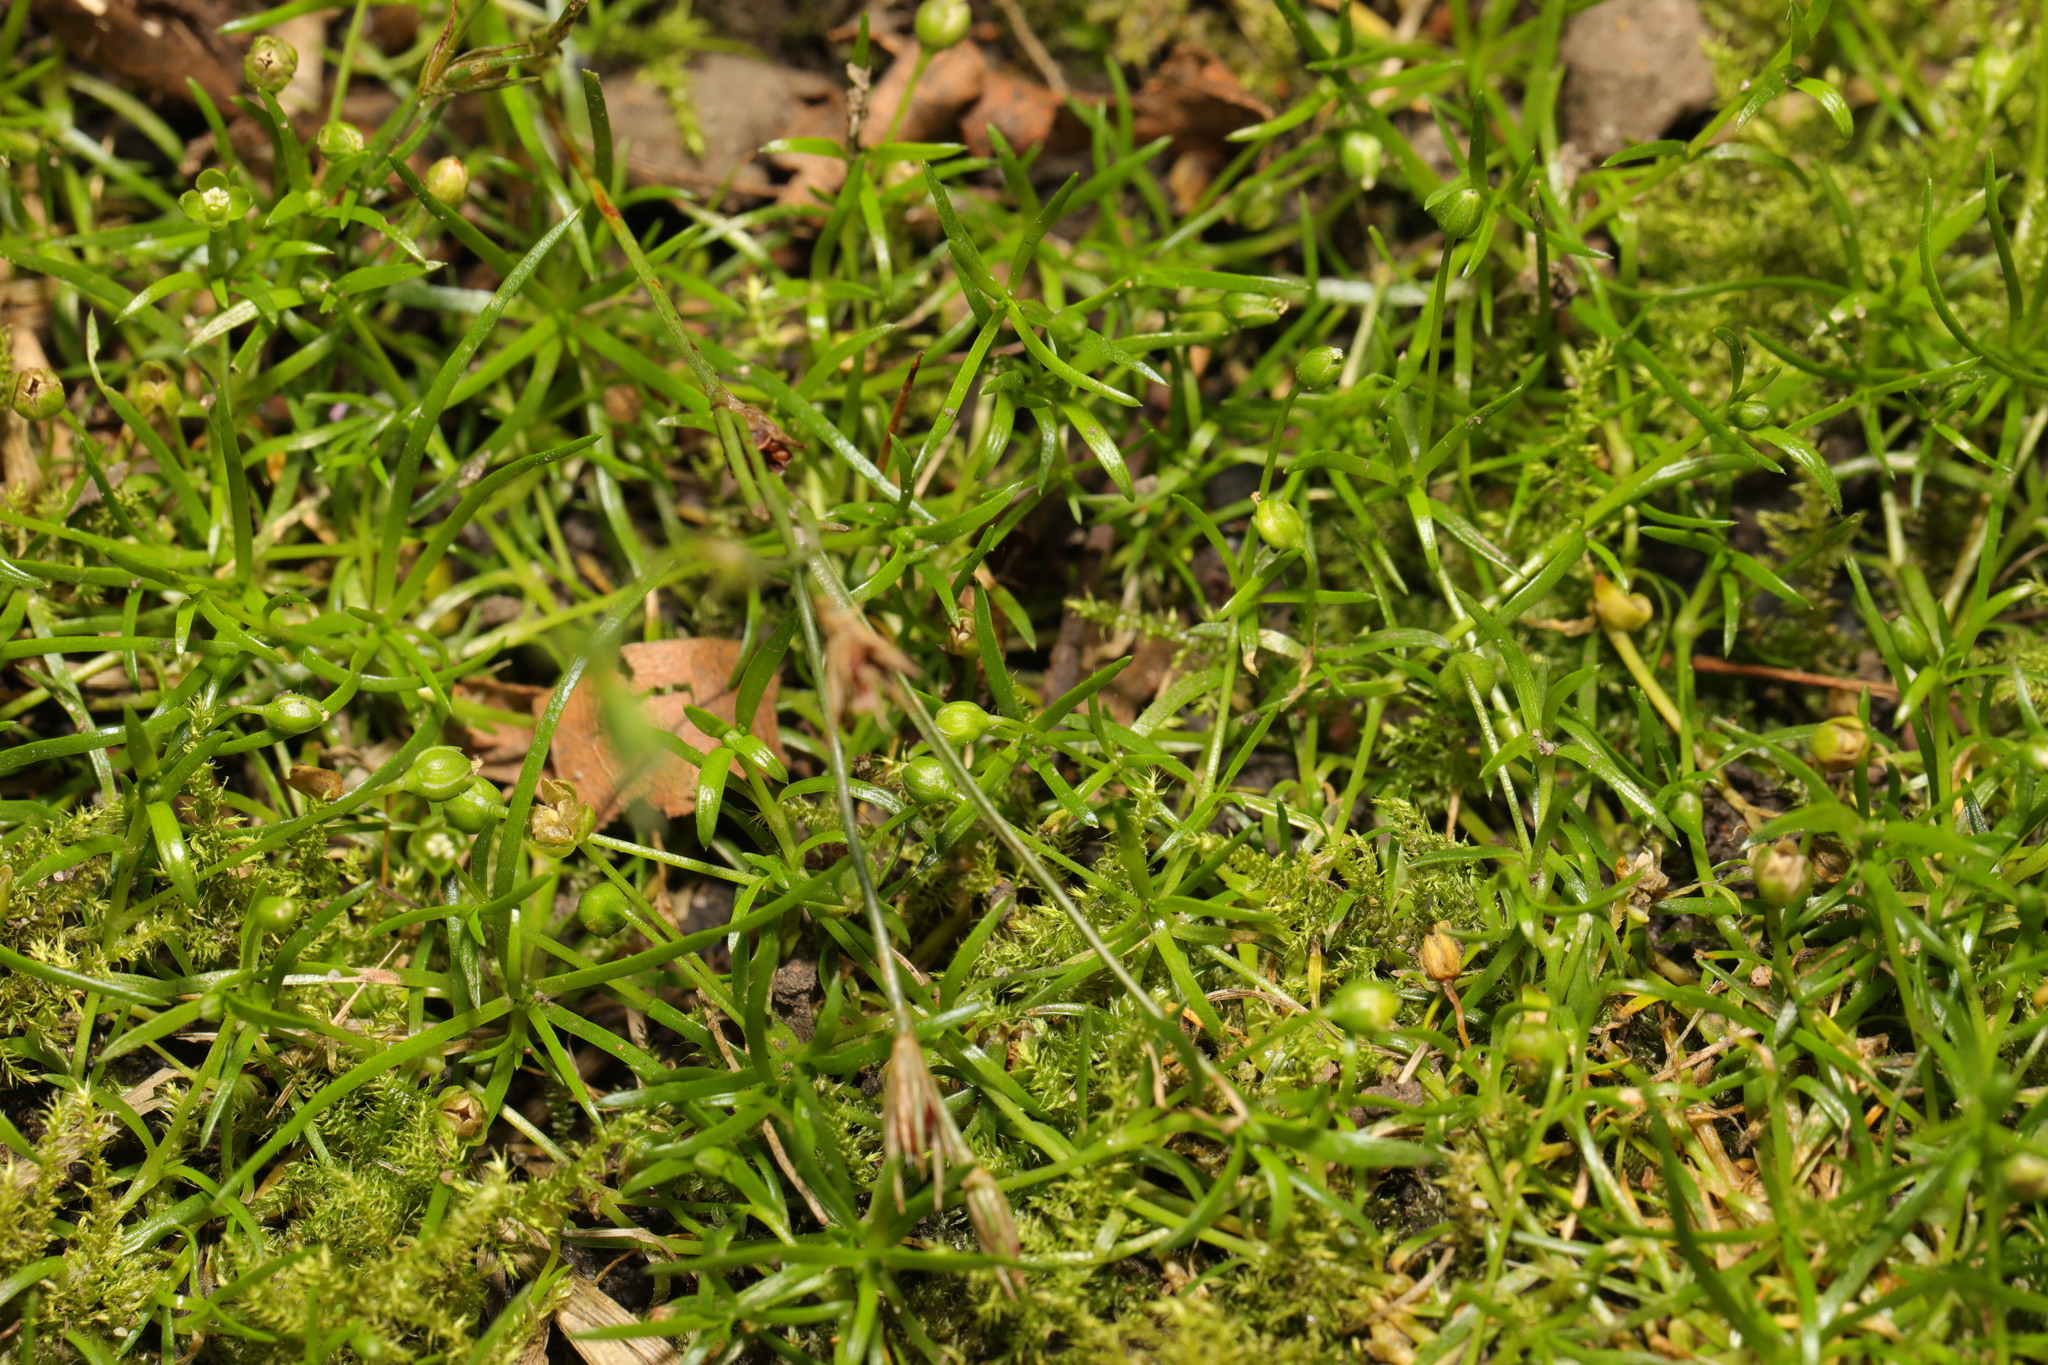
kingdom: Plantae
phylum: Tracheophyta
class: Magnoliopsida
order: Caryophyllales
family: Caryophyllaceae
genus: Sagina
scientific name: Sagina procumbens
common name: Procumbent pearlwort
